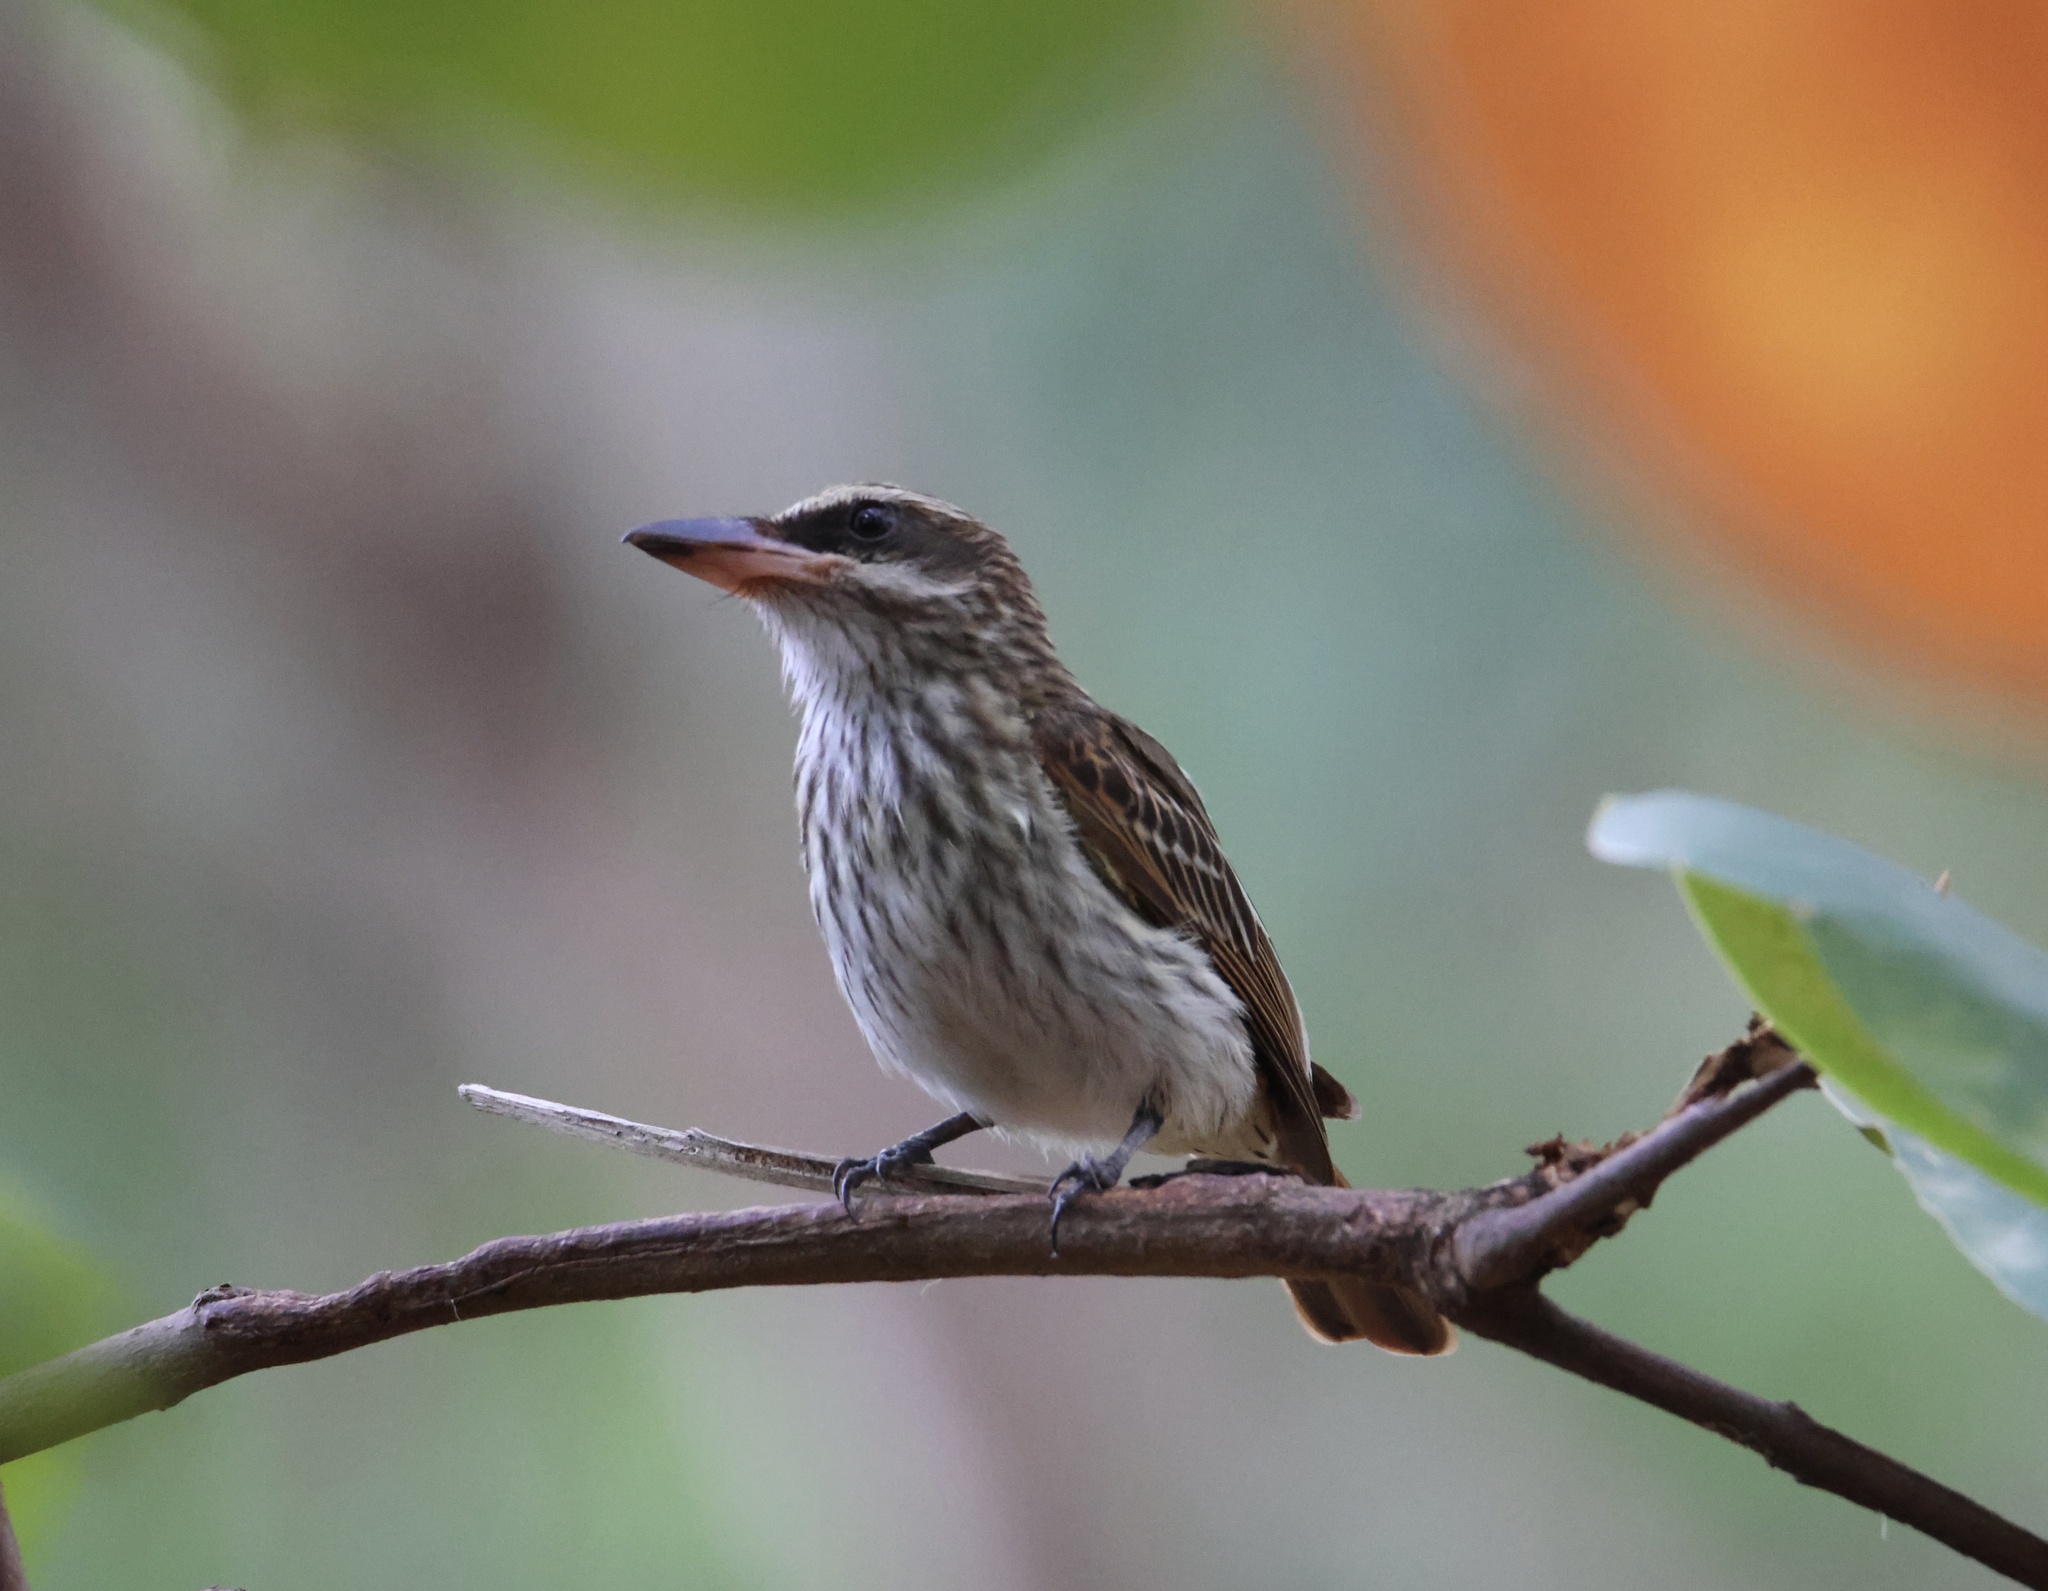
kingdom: Animalia
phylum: Chordata
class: Aves
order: Passeriformes
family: Tyrannidae
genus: Myiodynastes
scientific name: Myiodynastes maculatus
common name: Streaked flycatcher
